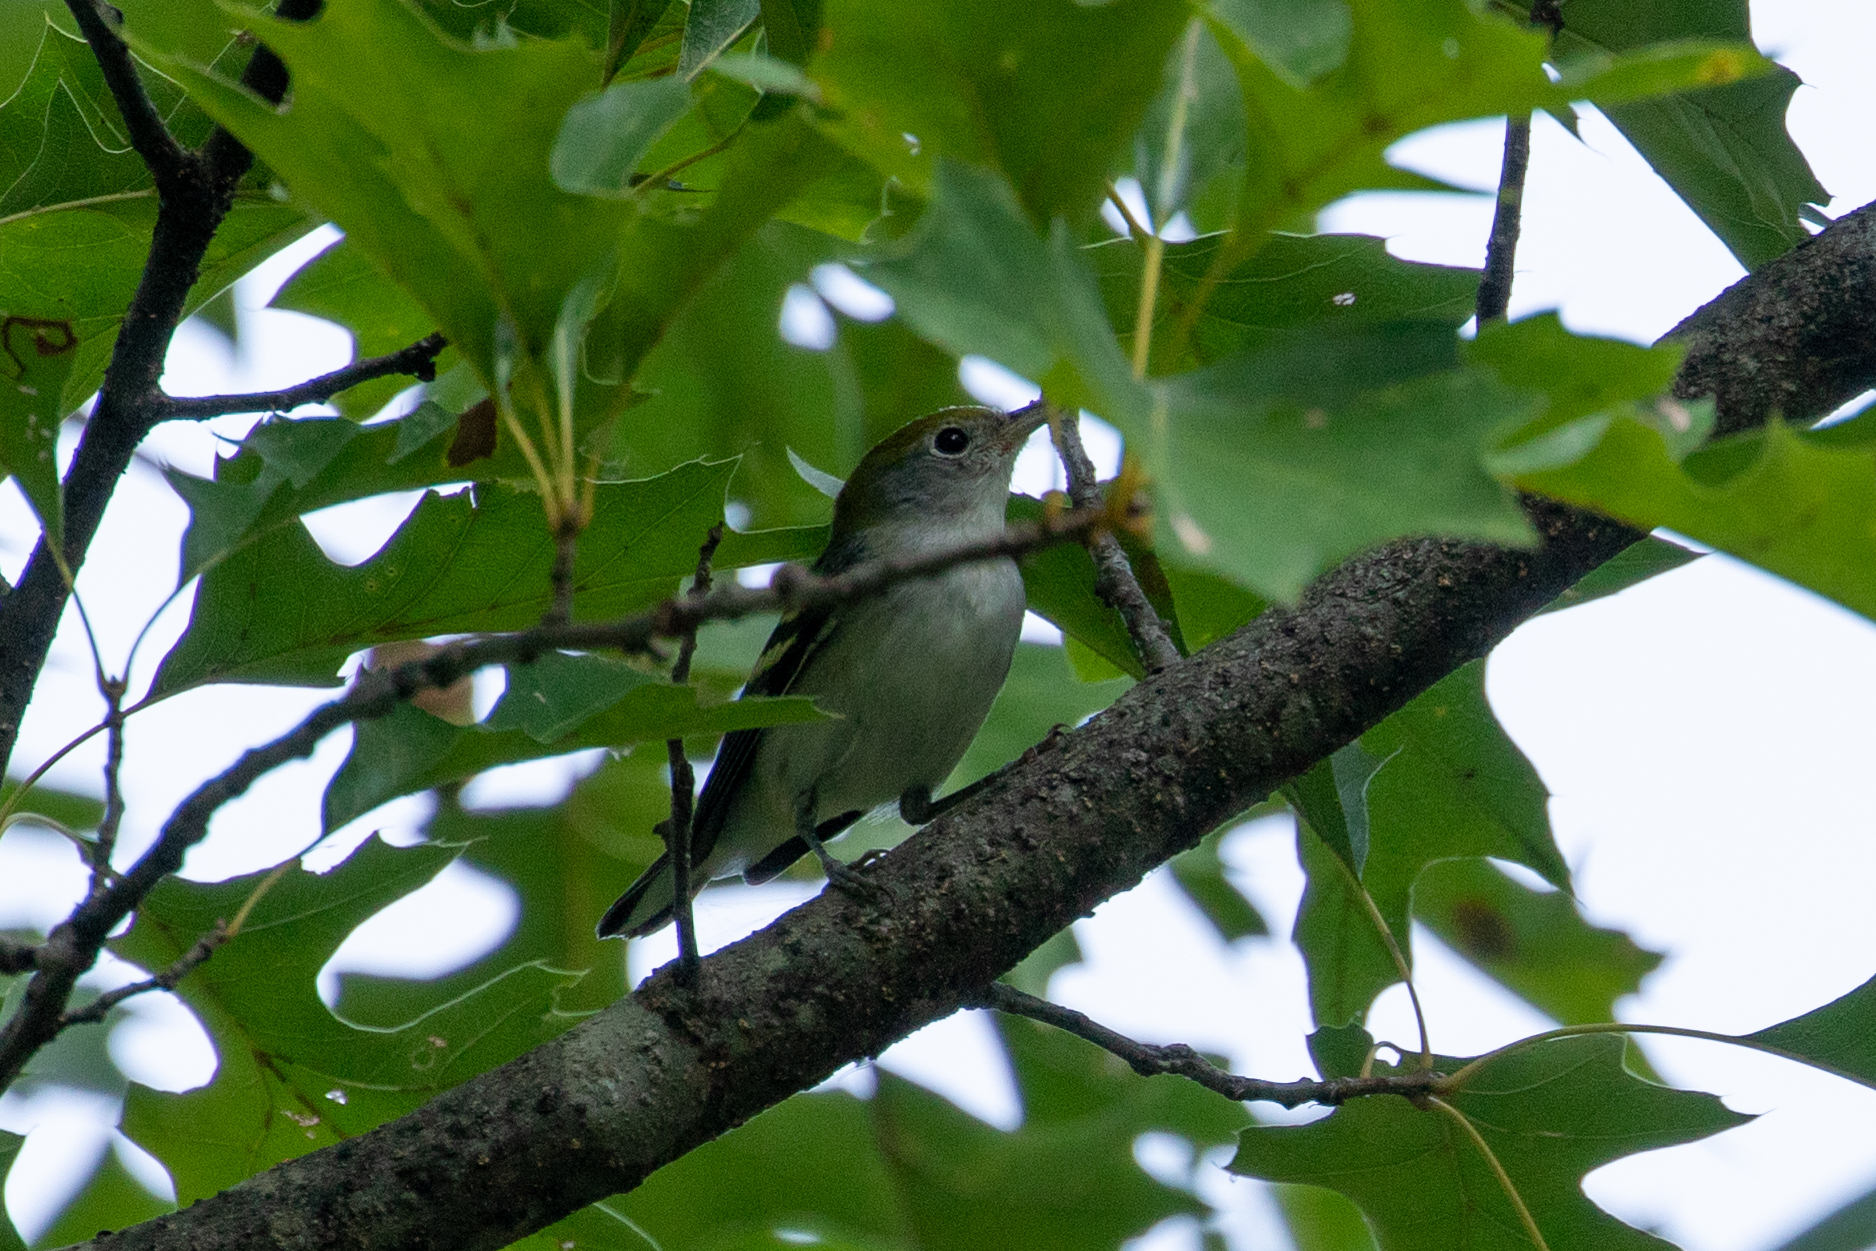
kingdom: Animalia
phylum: Chordata
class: Aves
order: Passeriformes
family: Parulidae
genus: Setophaga
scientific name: Setophaga pensylvanica
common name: Chestnut-sided warbler
